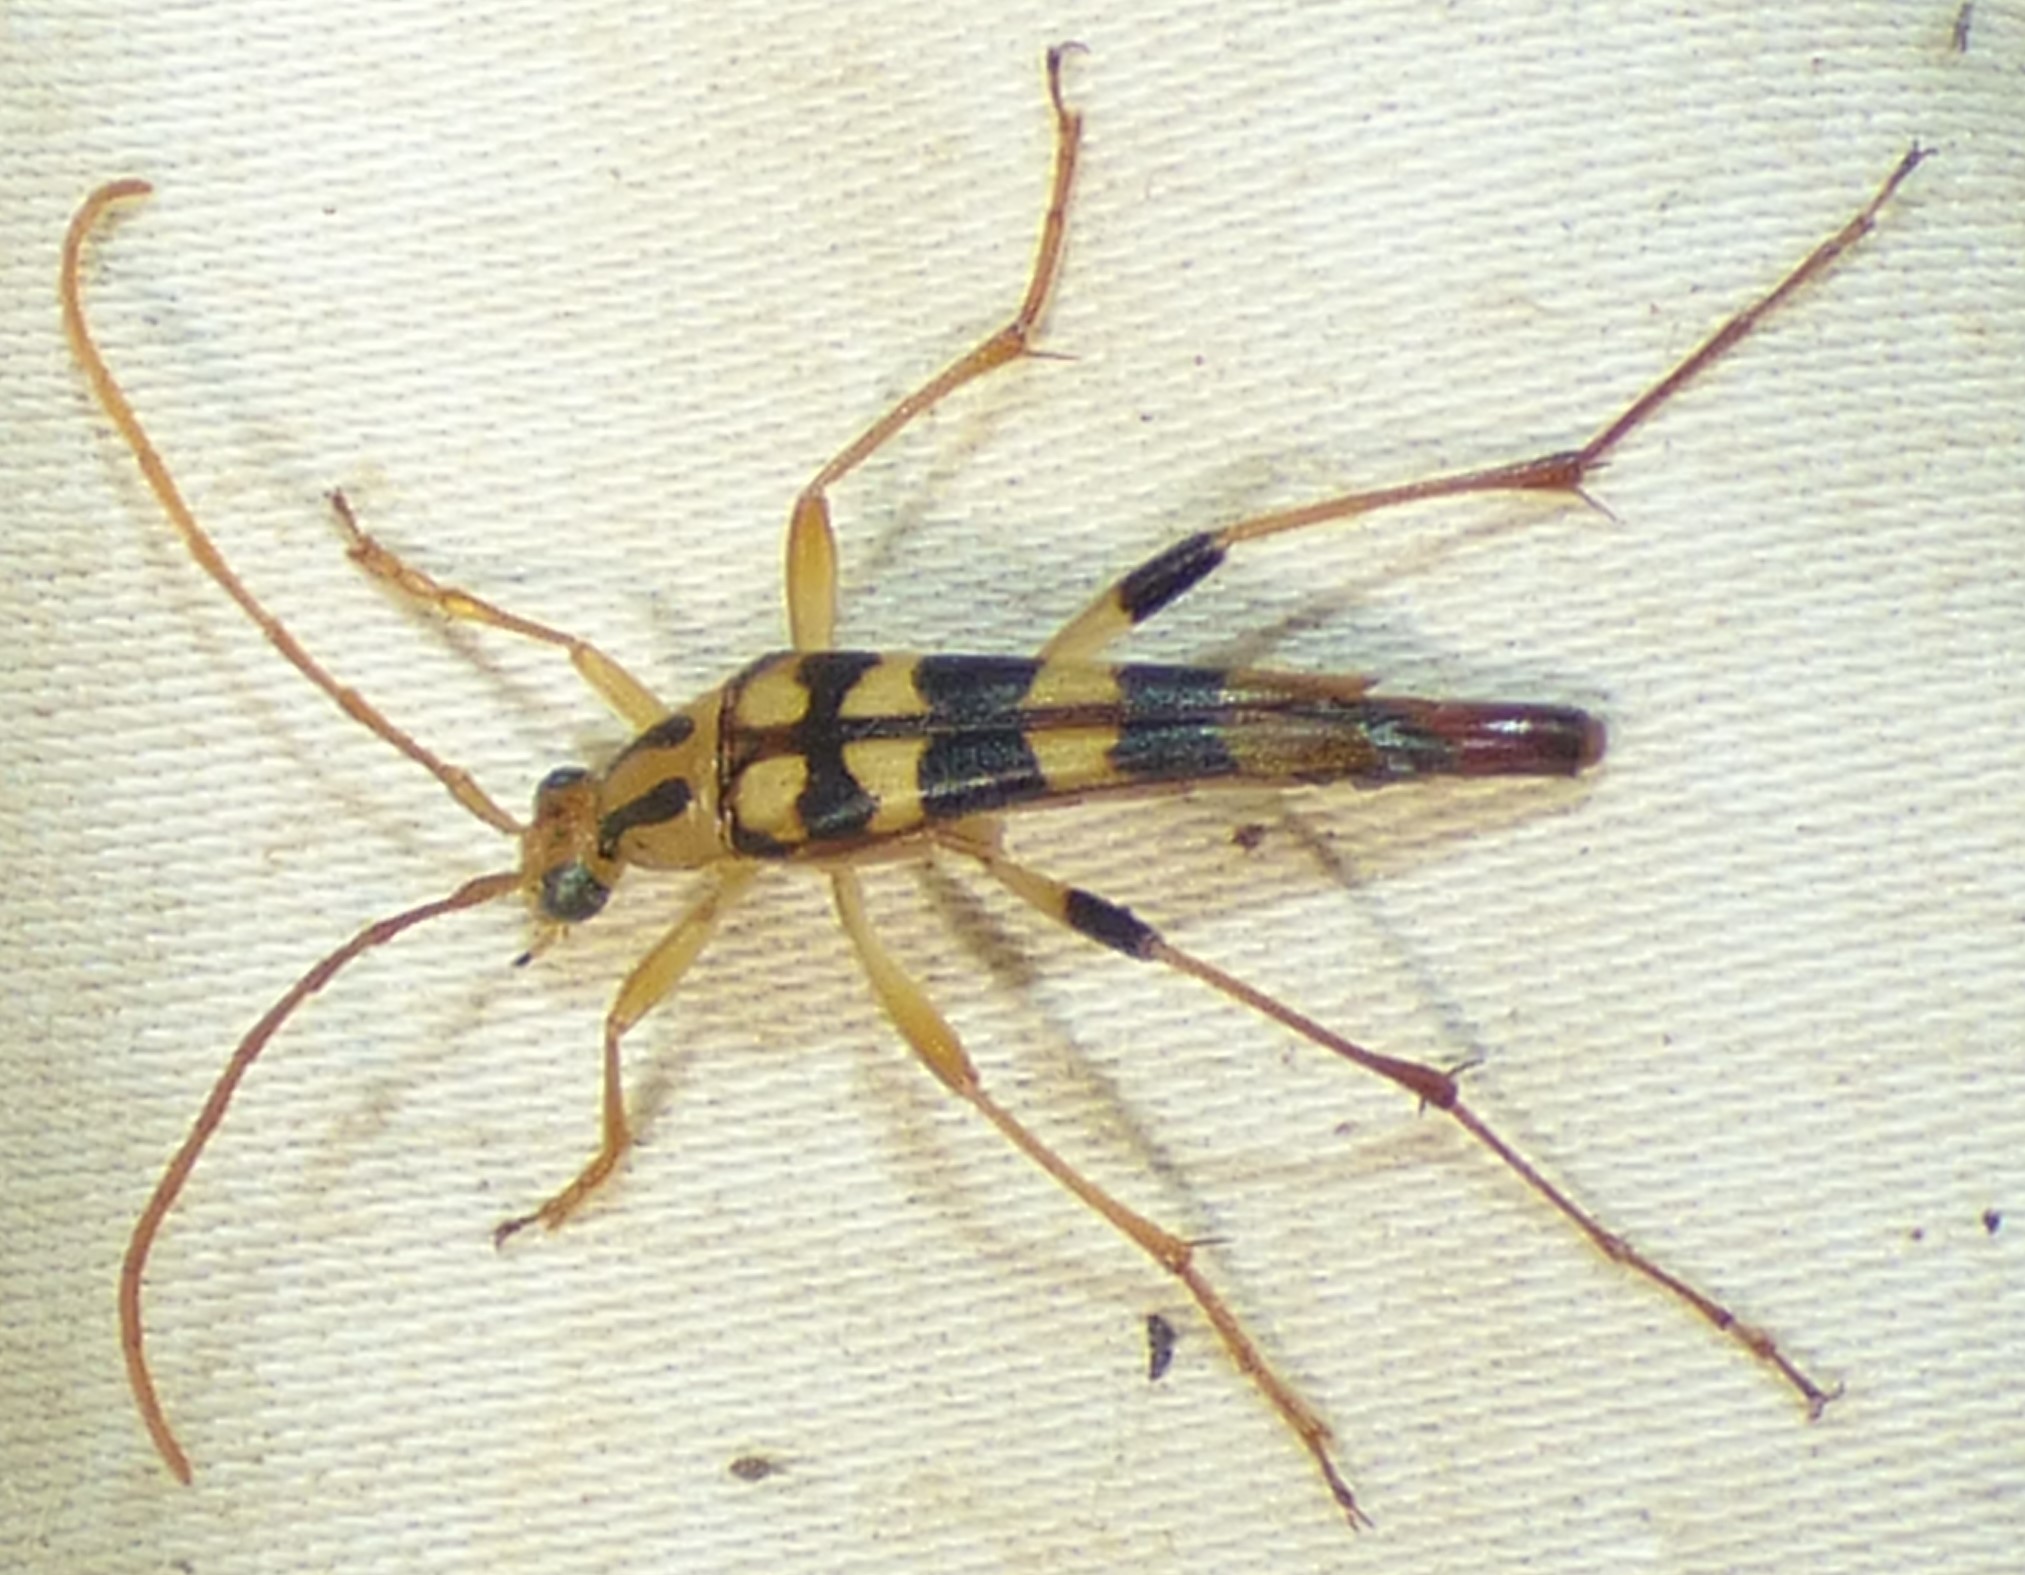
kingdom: Animalia
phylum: Arthropoda
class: Insecta
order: Coleoptera
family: Cerambycidae
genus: Strangalia
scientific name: Strangalia luteicornis
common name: Yellow-horned flower longhorn beetle
